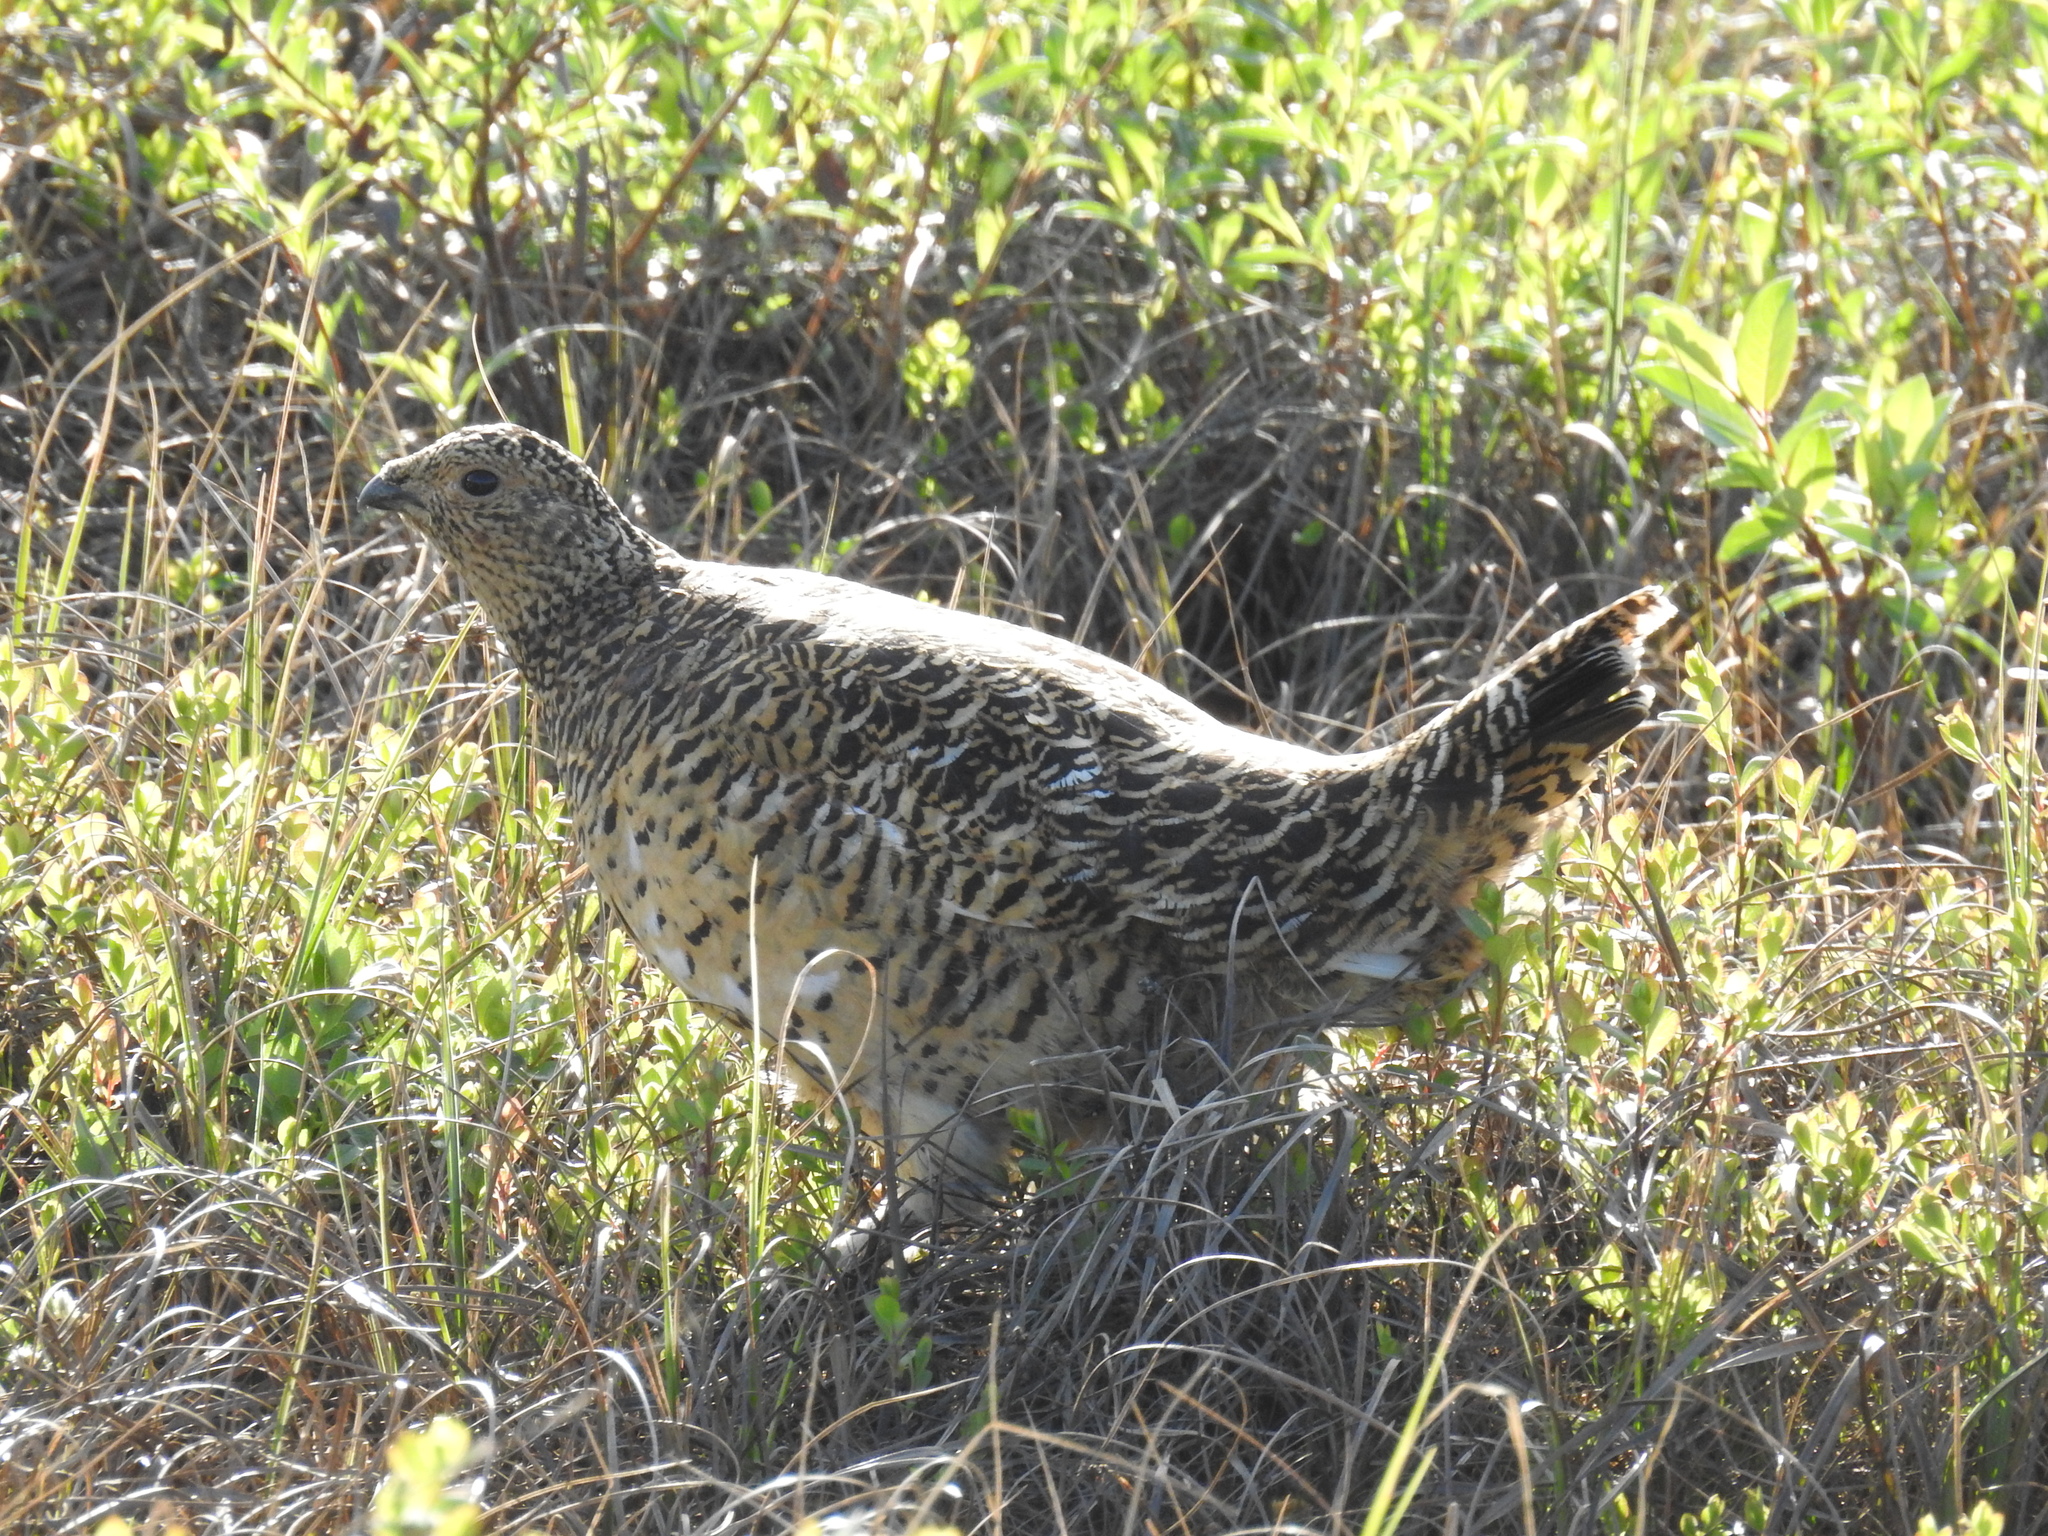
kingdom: Animalia
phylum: Chordata
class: Aves
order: Galliformes
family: Phasianidae
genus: Lagopus
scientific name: Lagopus lagopus
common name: Willow ptarmigan
